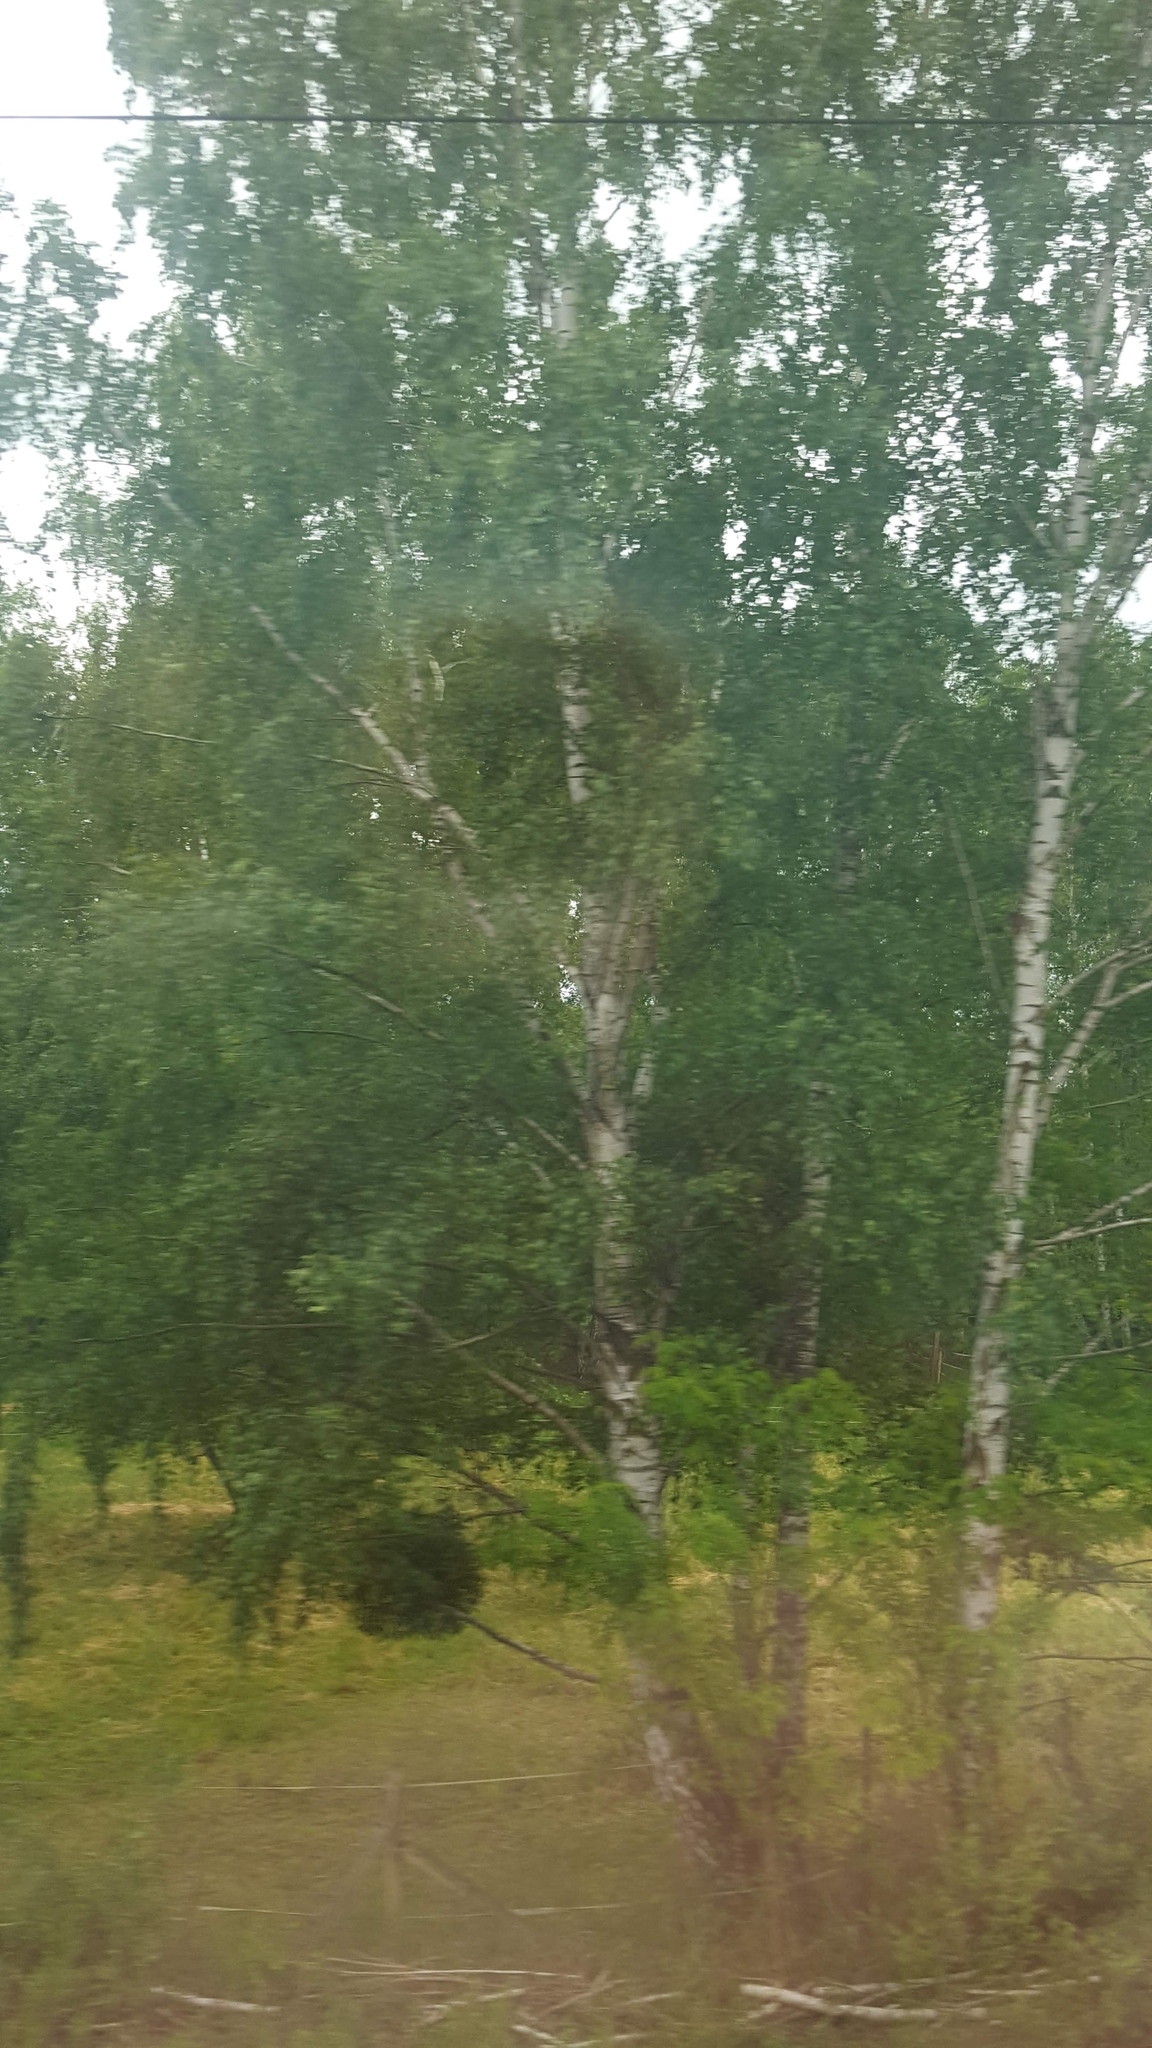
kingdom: Plantae
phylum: Tracheophyta
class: Magnoliopsida
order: Fagales
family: Betulaceae
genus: Betula
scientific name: Betula pendula
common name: Silver birch
